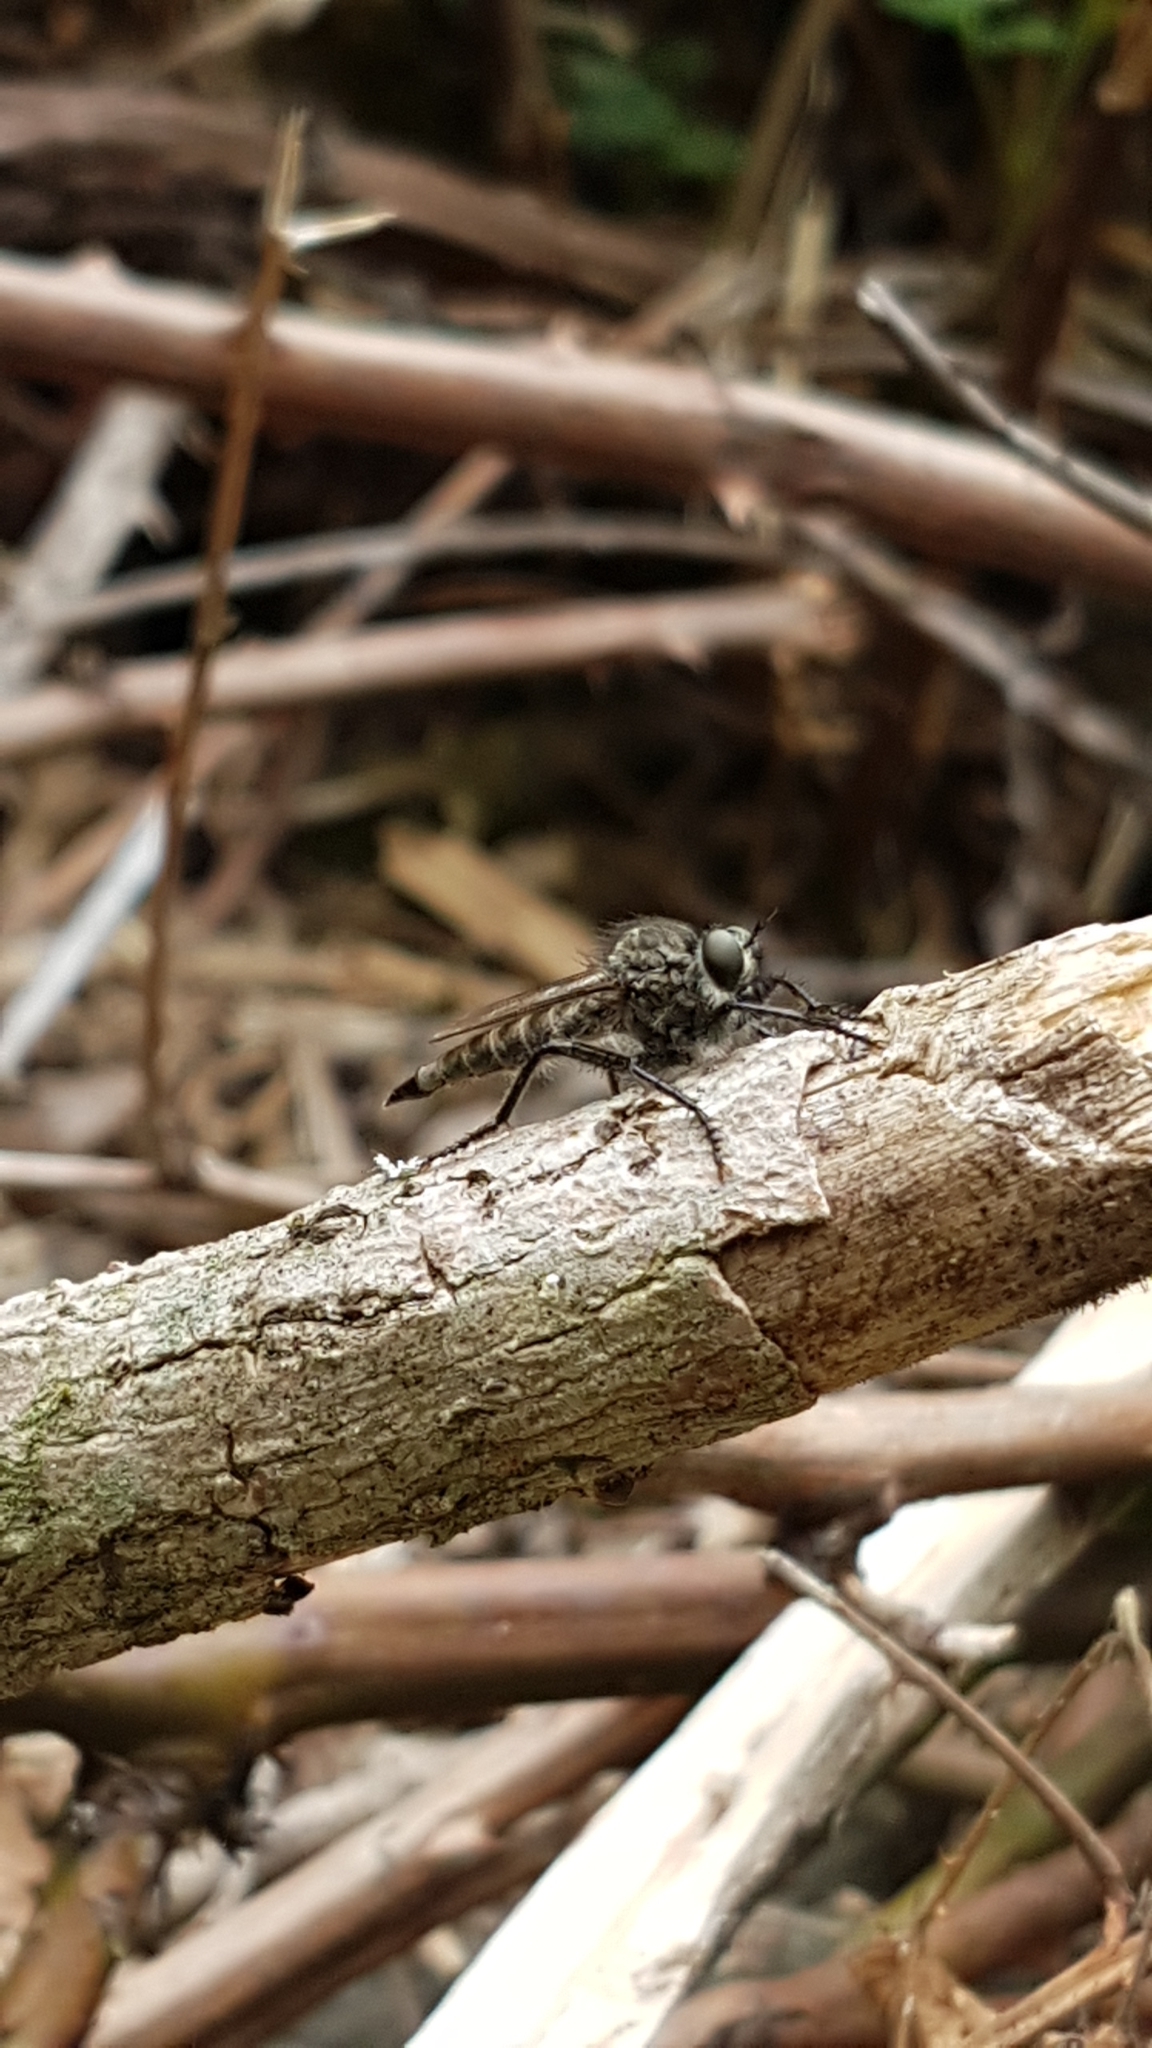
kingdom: Animalia
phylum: Arthropoda
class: Insecta
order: Diptera
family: Asilidae
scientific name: Asilidae
